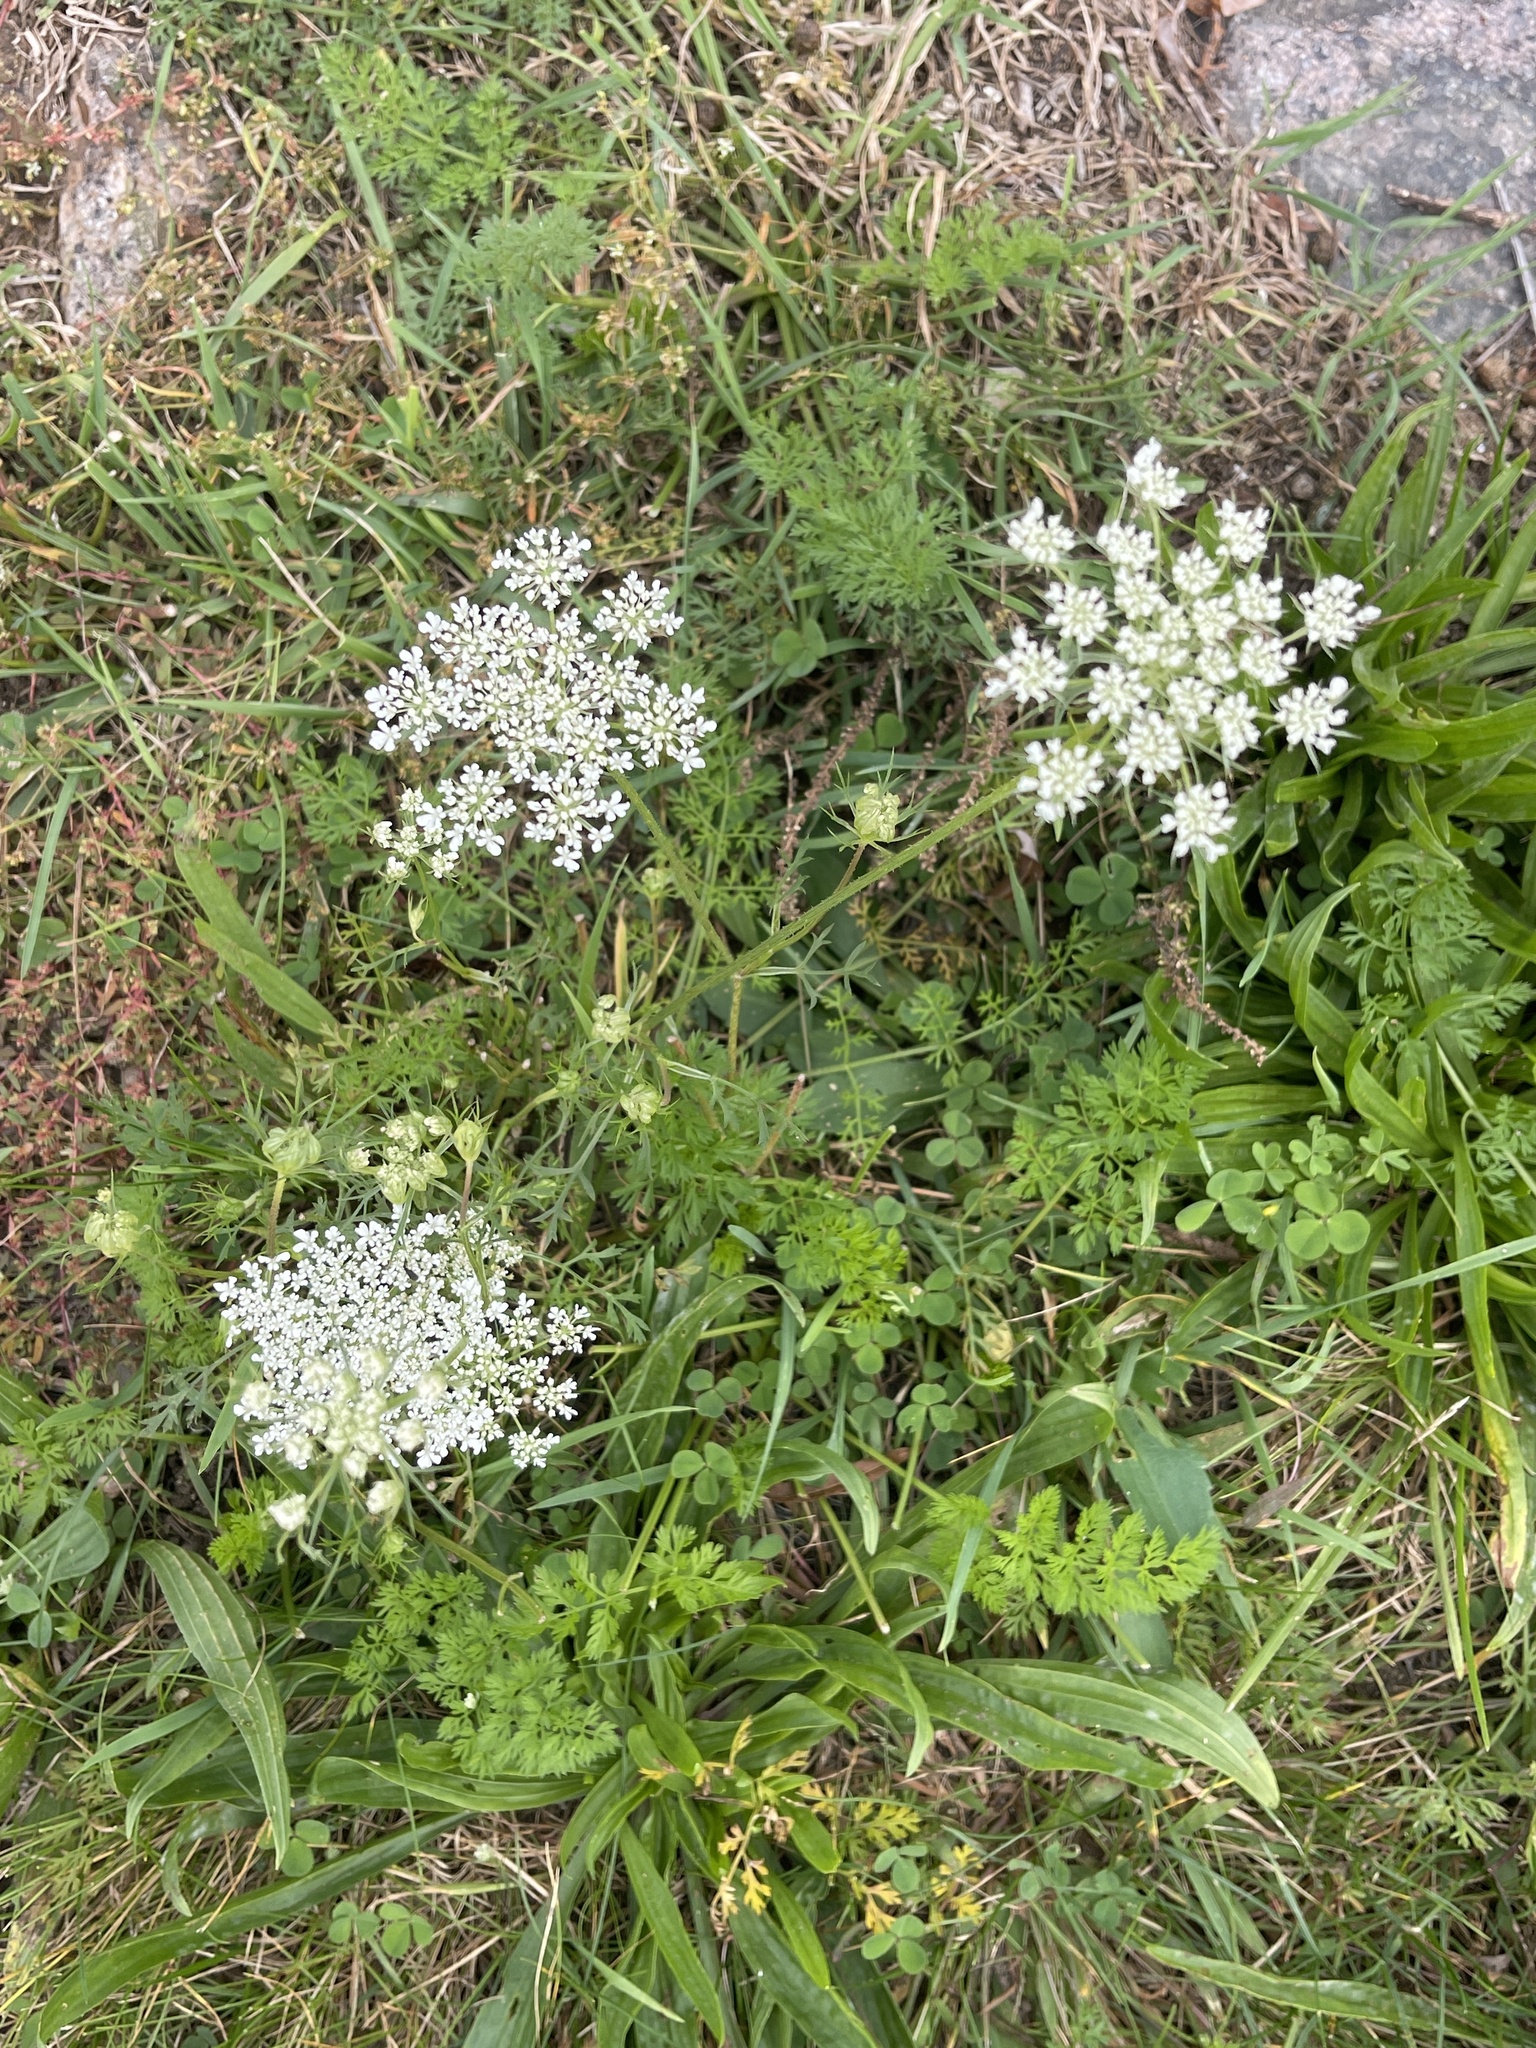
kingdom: Plantae
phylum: Tracheophyta
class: Magnoliopsida
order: Apiales
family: Apiaceae
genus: Daucus
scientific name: Daucus carota
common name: Wild carrot
